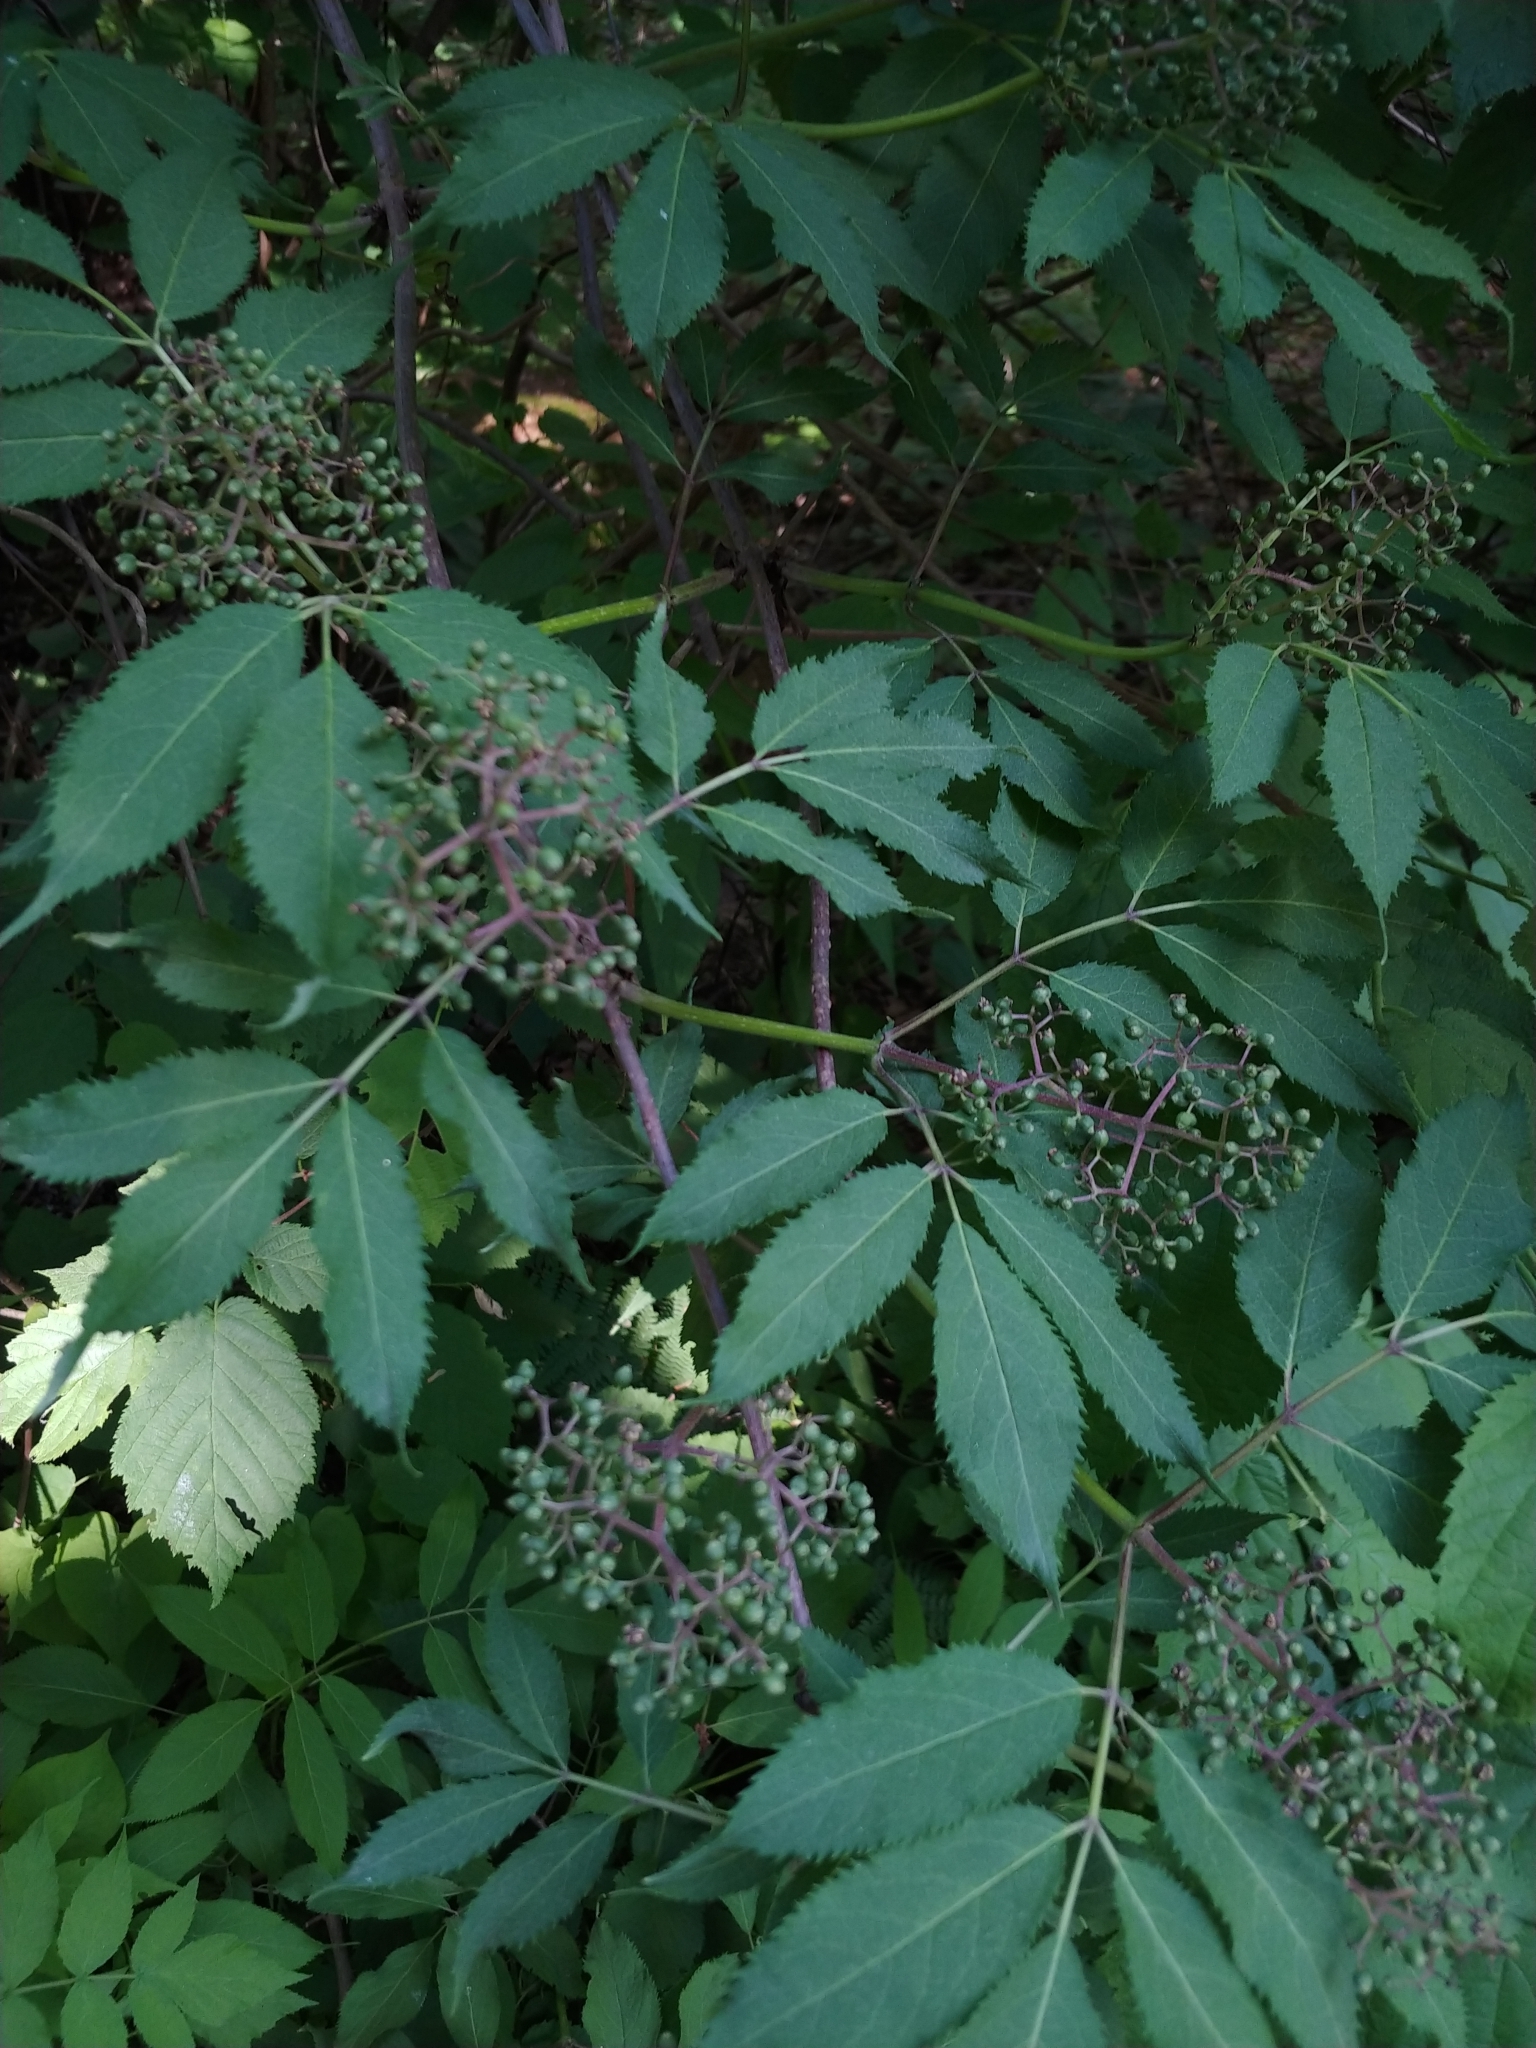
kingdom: Plantae
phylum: Tracheophyta
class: Magnoliopsida
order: Dipsacales
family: Viburnaceae
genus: Sambucus
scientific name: Sambucus racemosa
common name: Red-berried elder
